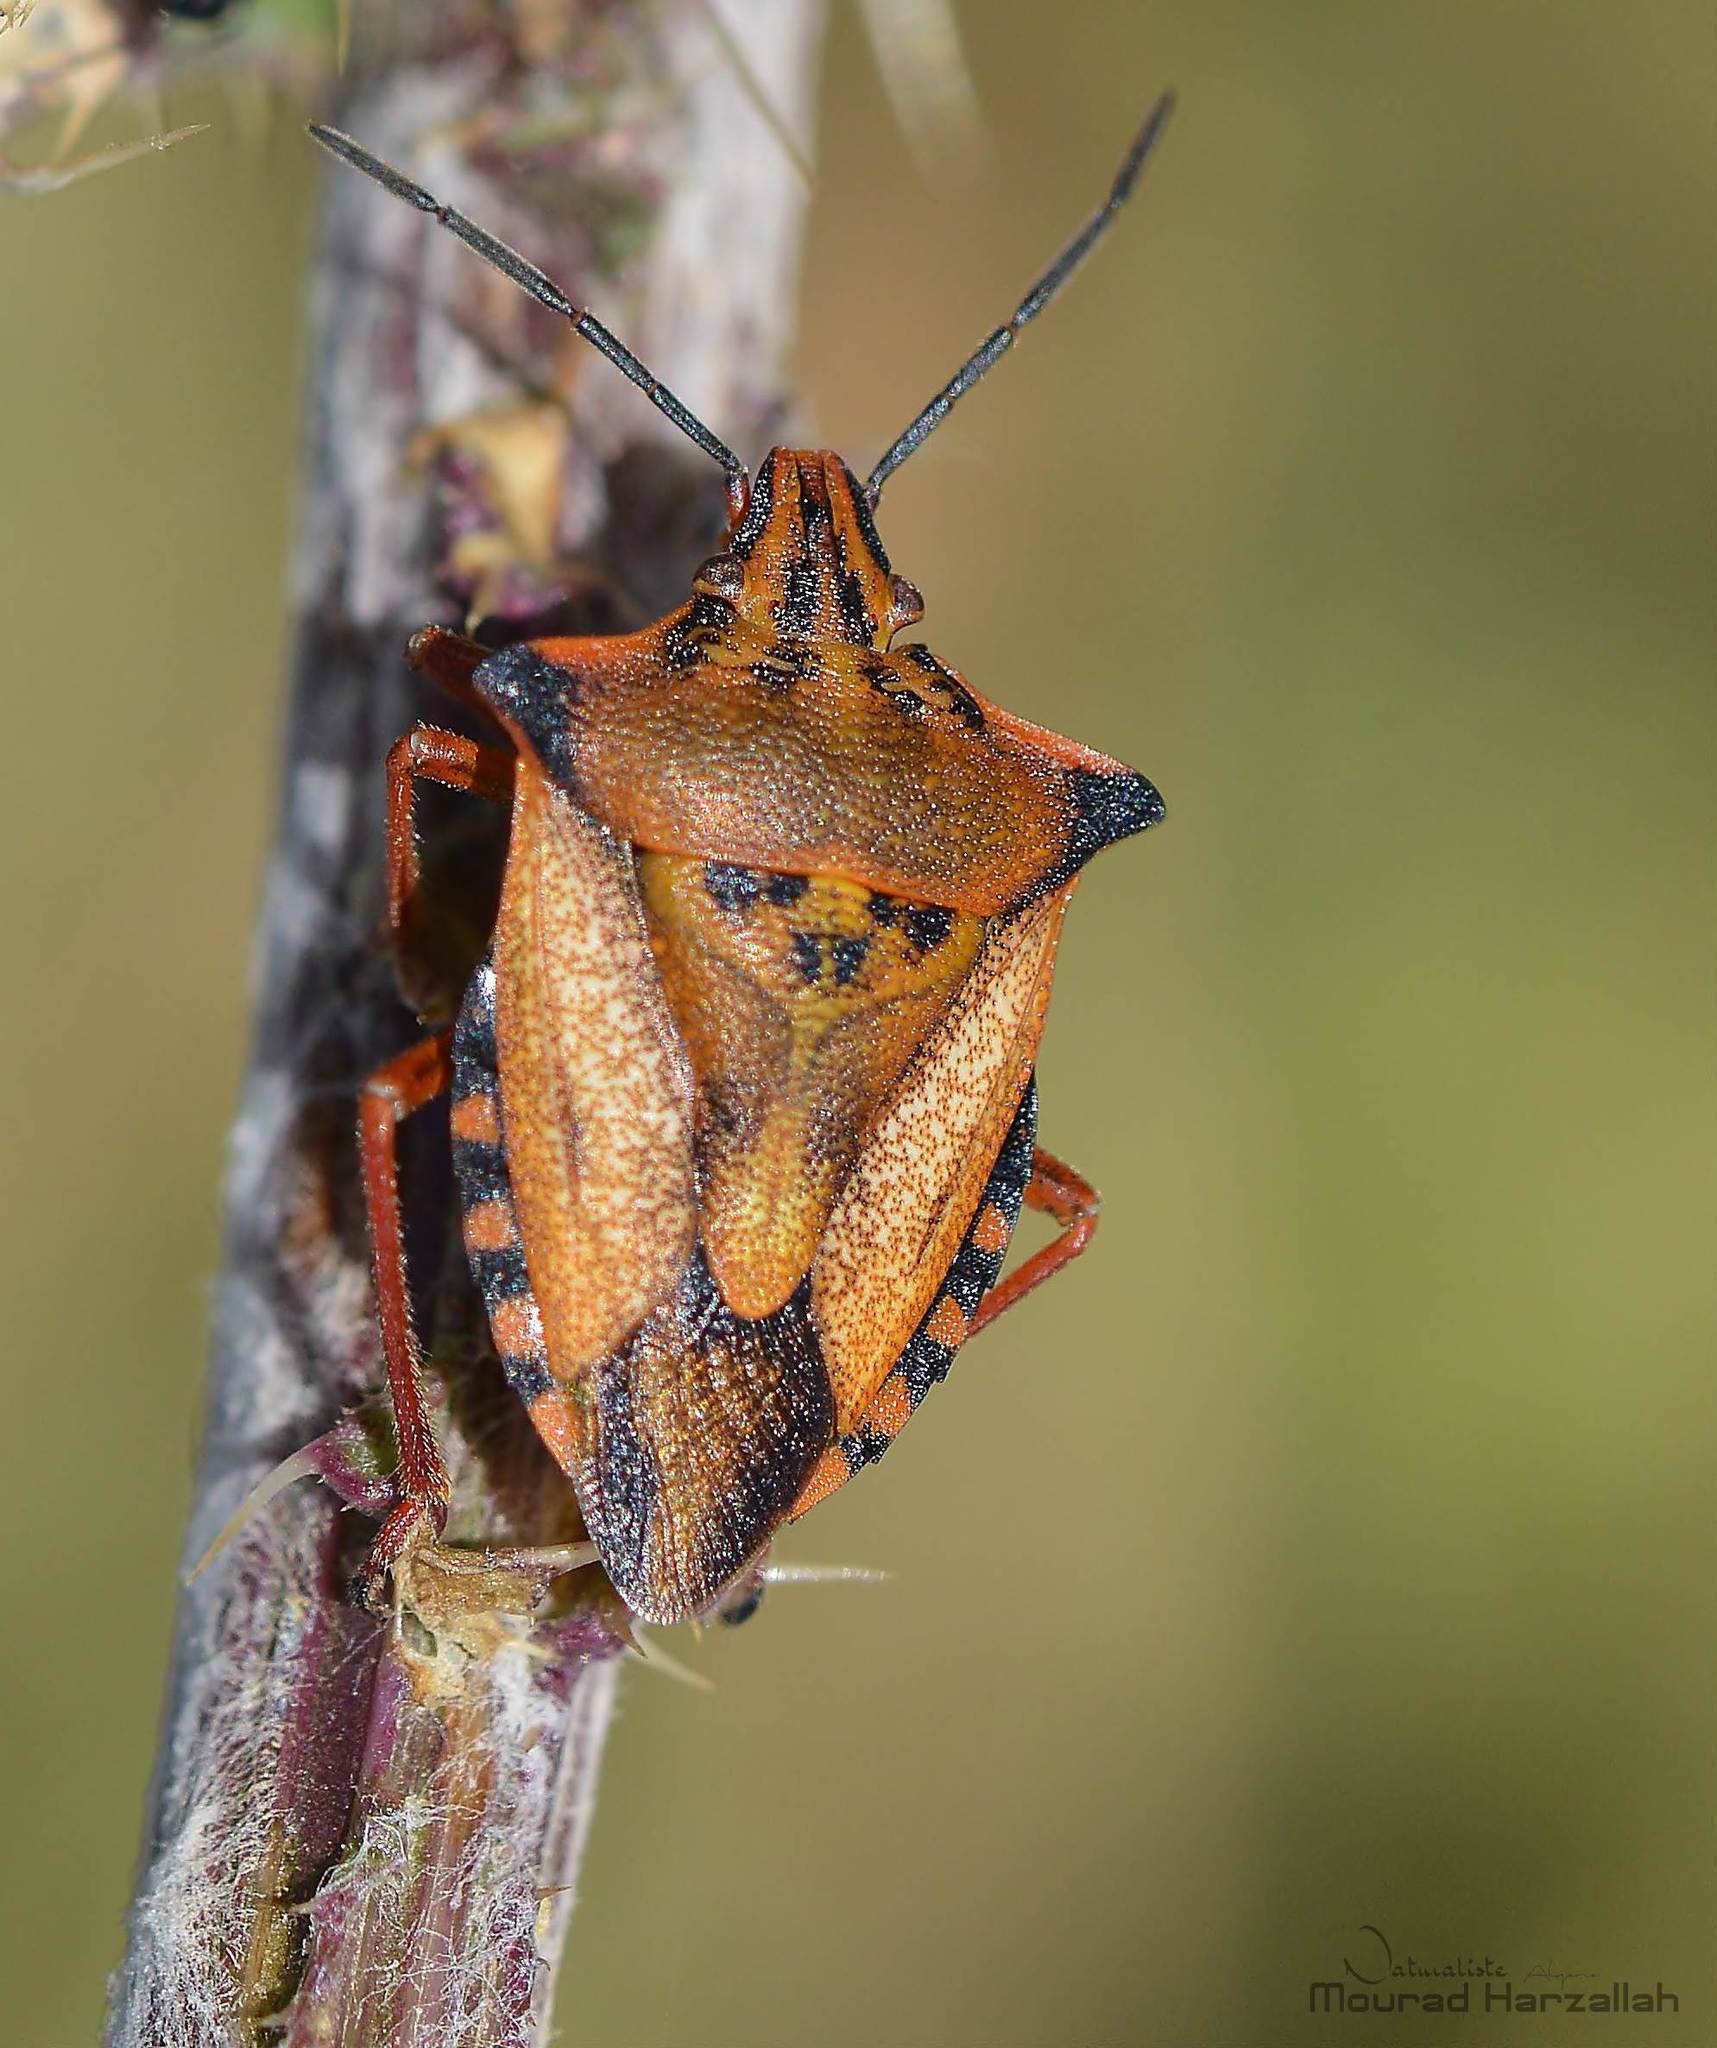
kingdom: Animalia
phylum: Arthropoda
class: Insecta
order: Hemiptera
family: Pentatomidae
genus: Carpocoris
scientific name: Carpocoris mediterraneus
